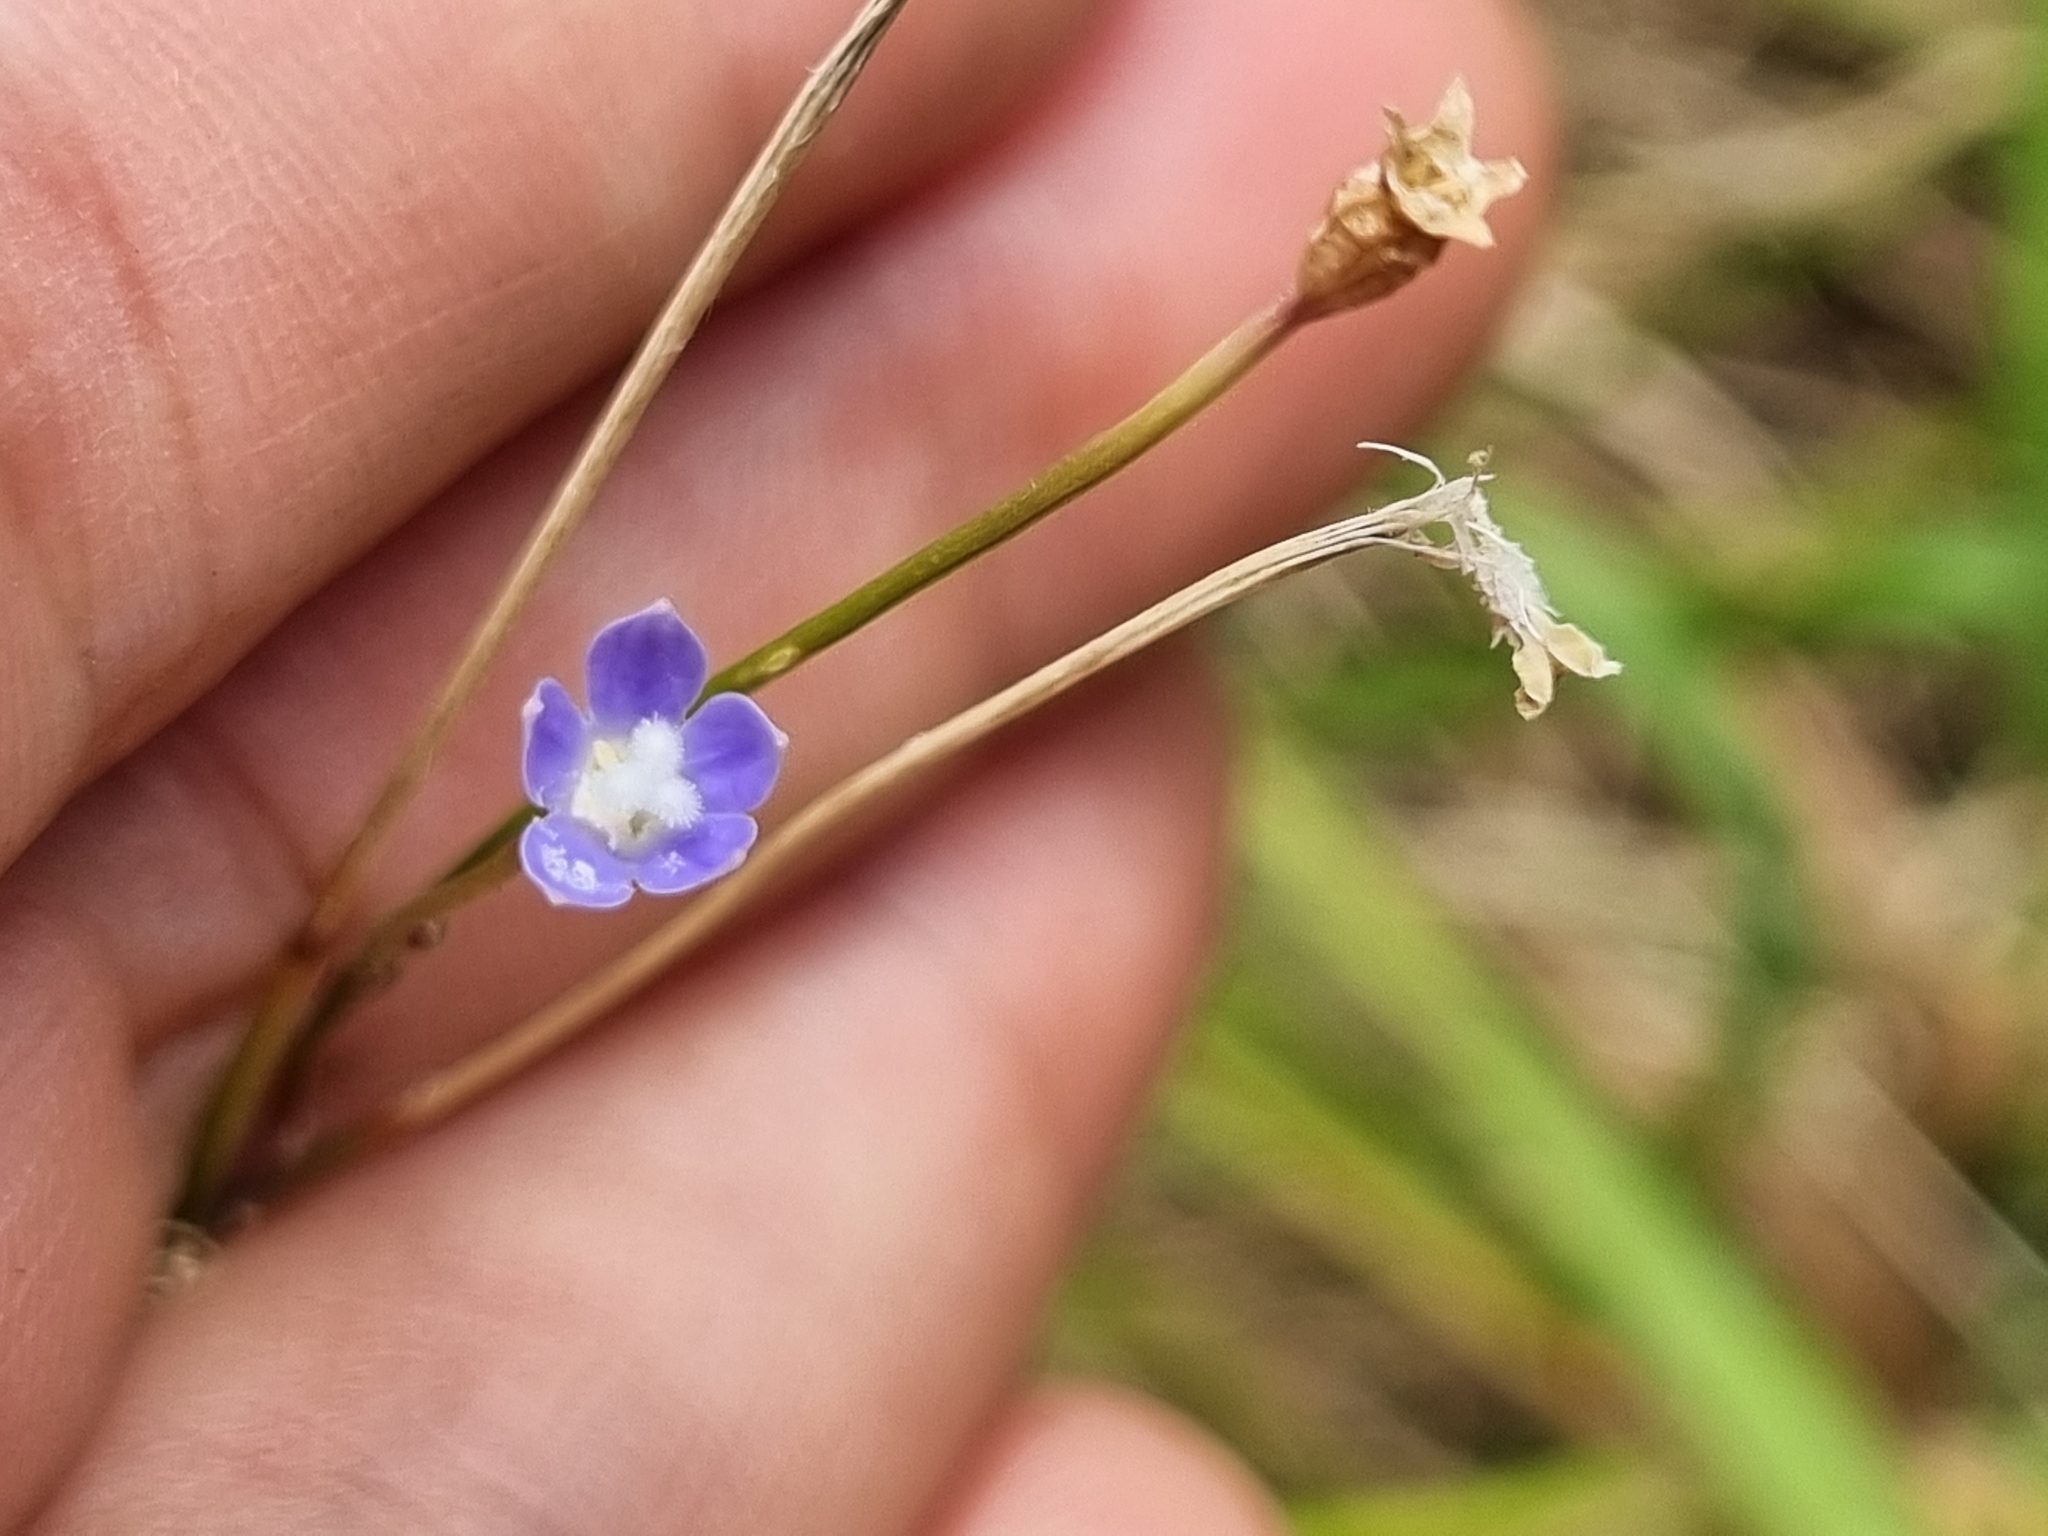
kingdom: Plantae
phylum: Tracheophyta
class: Magnoliopsida
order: Asterales
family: Campanulaceae
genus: Wahlenbergia
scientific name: Wahlenbergia gracilis
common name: Harebell
